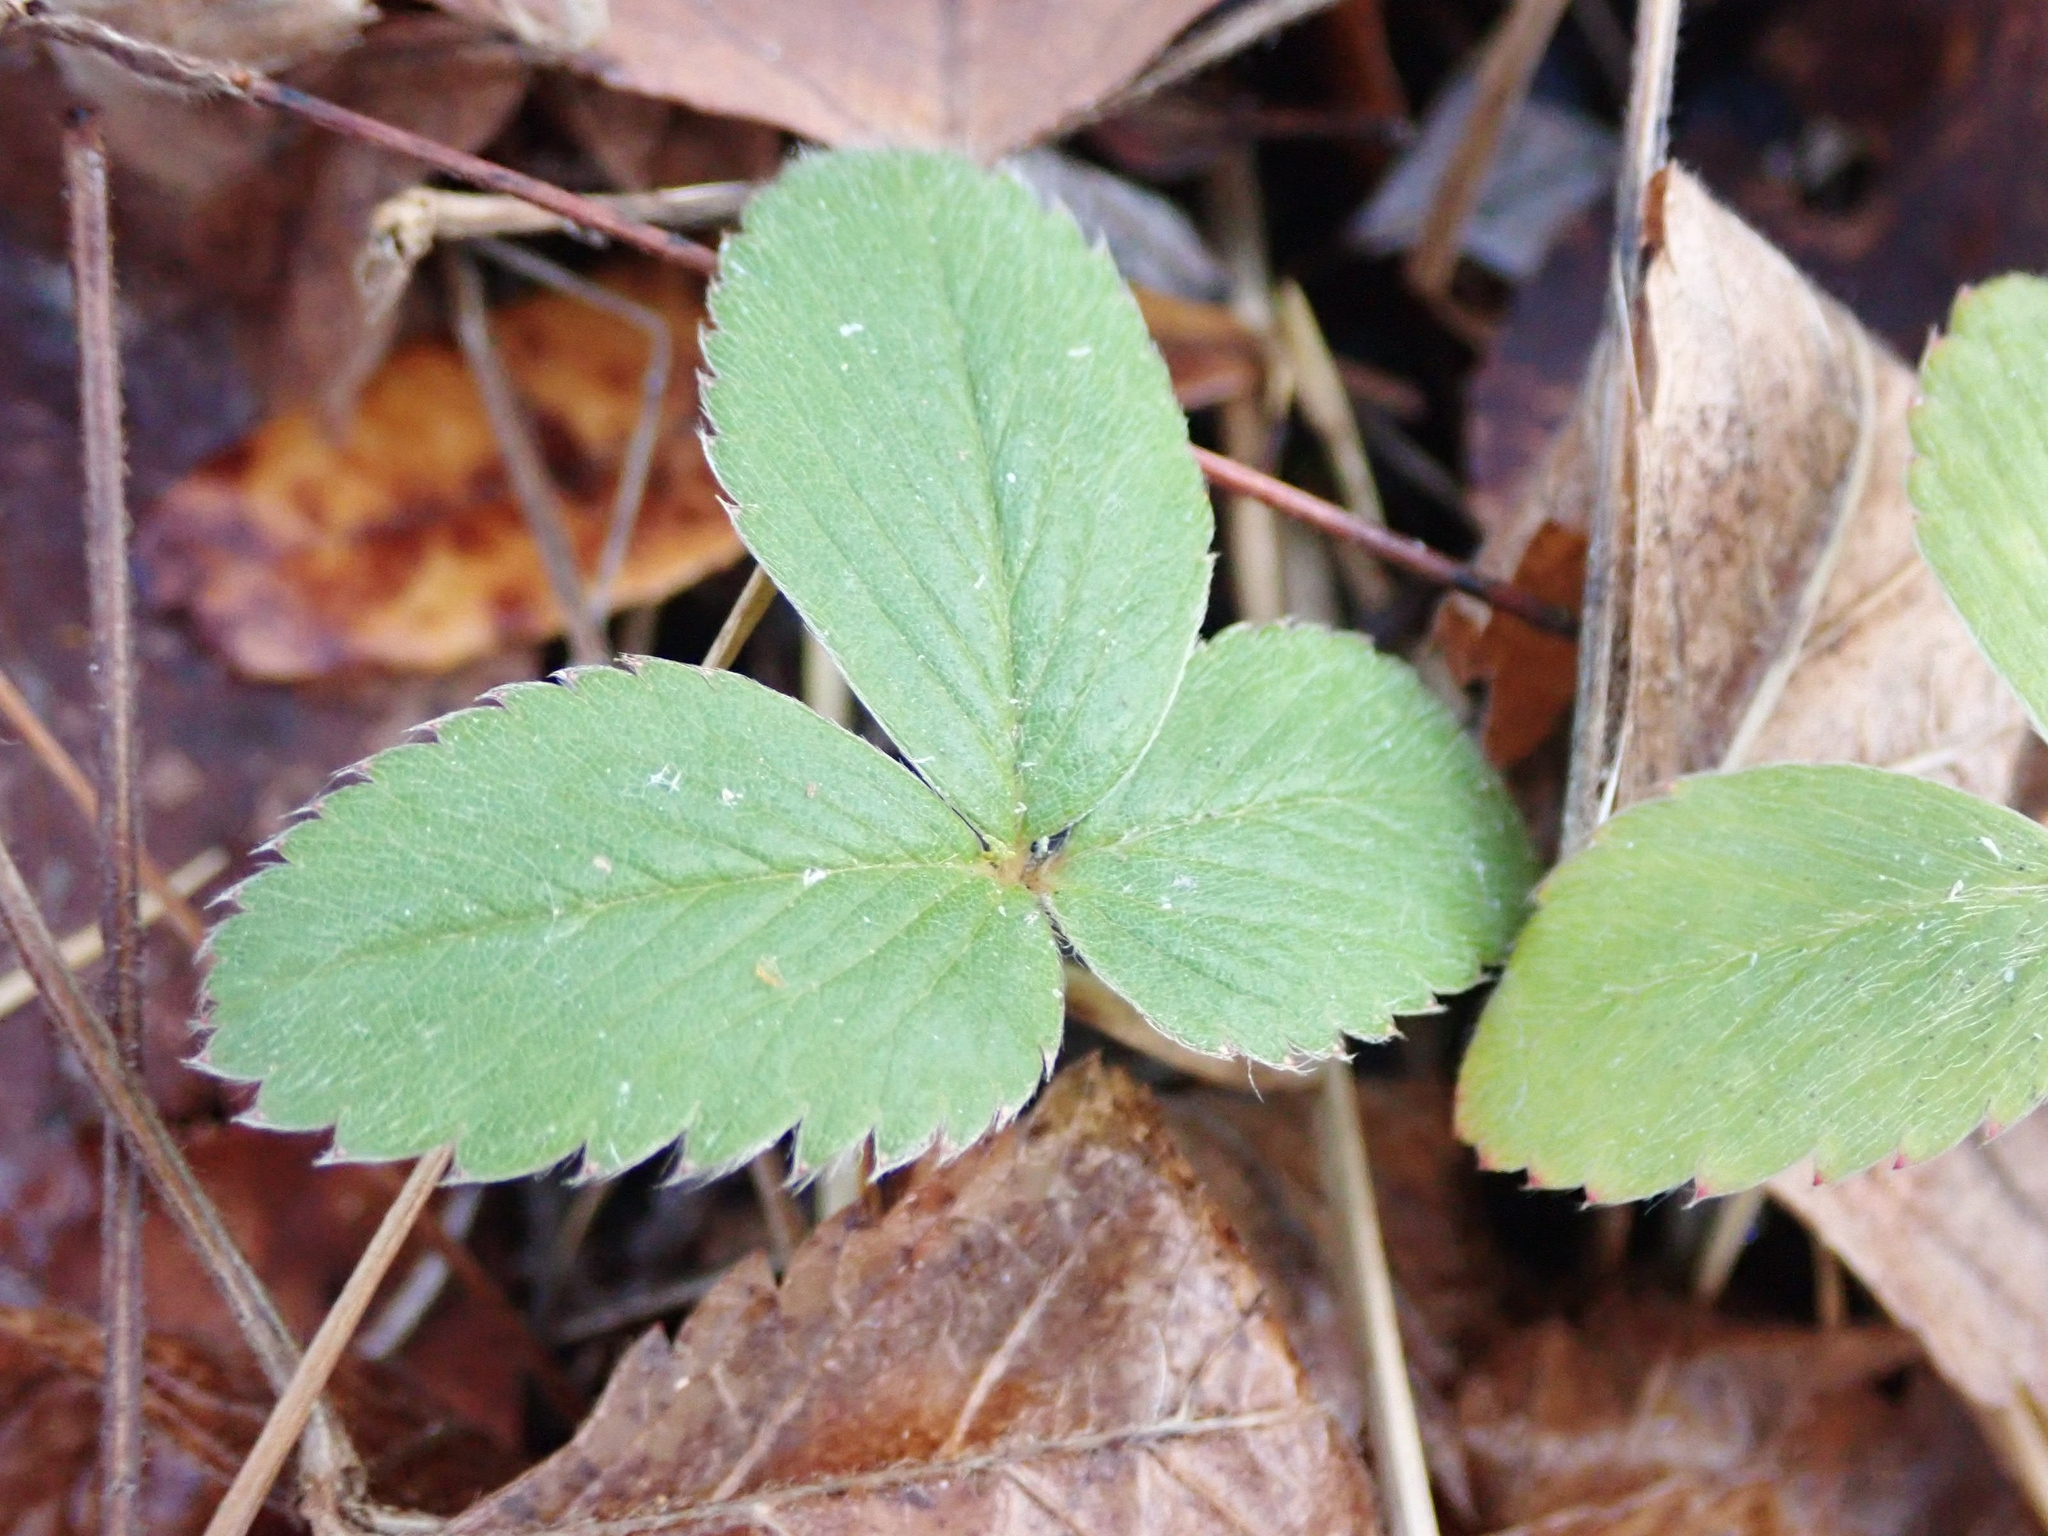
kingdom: Plantae
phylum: Tracheophyta
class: Magnoliopsida
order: Rosales
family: Rosaceae
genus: Fragaria
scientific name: Fragaria virginiana
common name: Thickleaved wild strawberry
